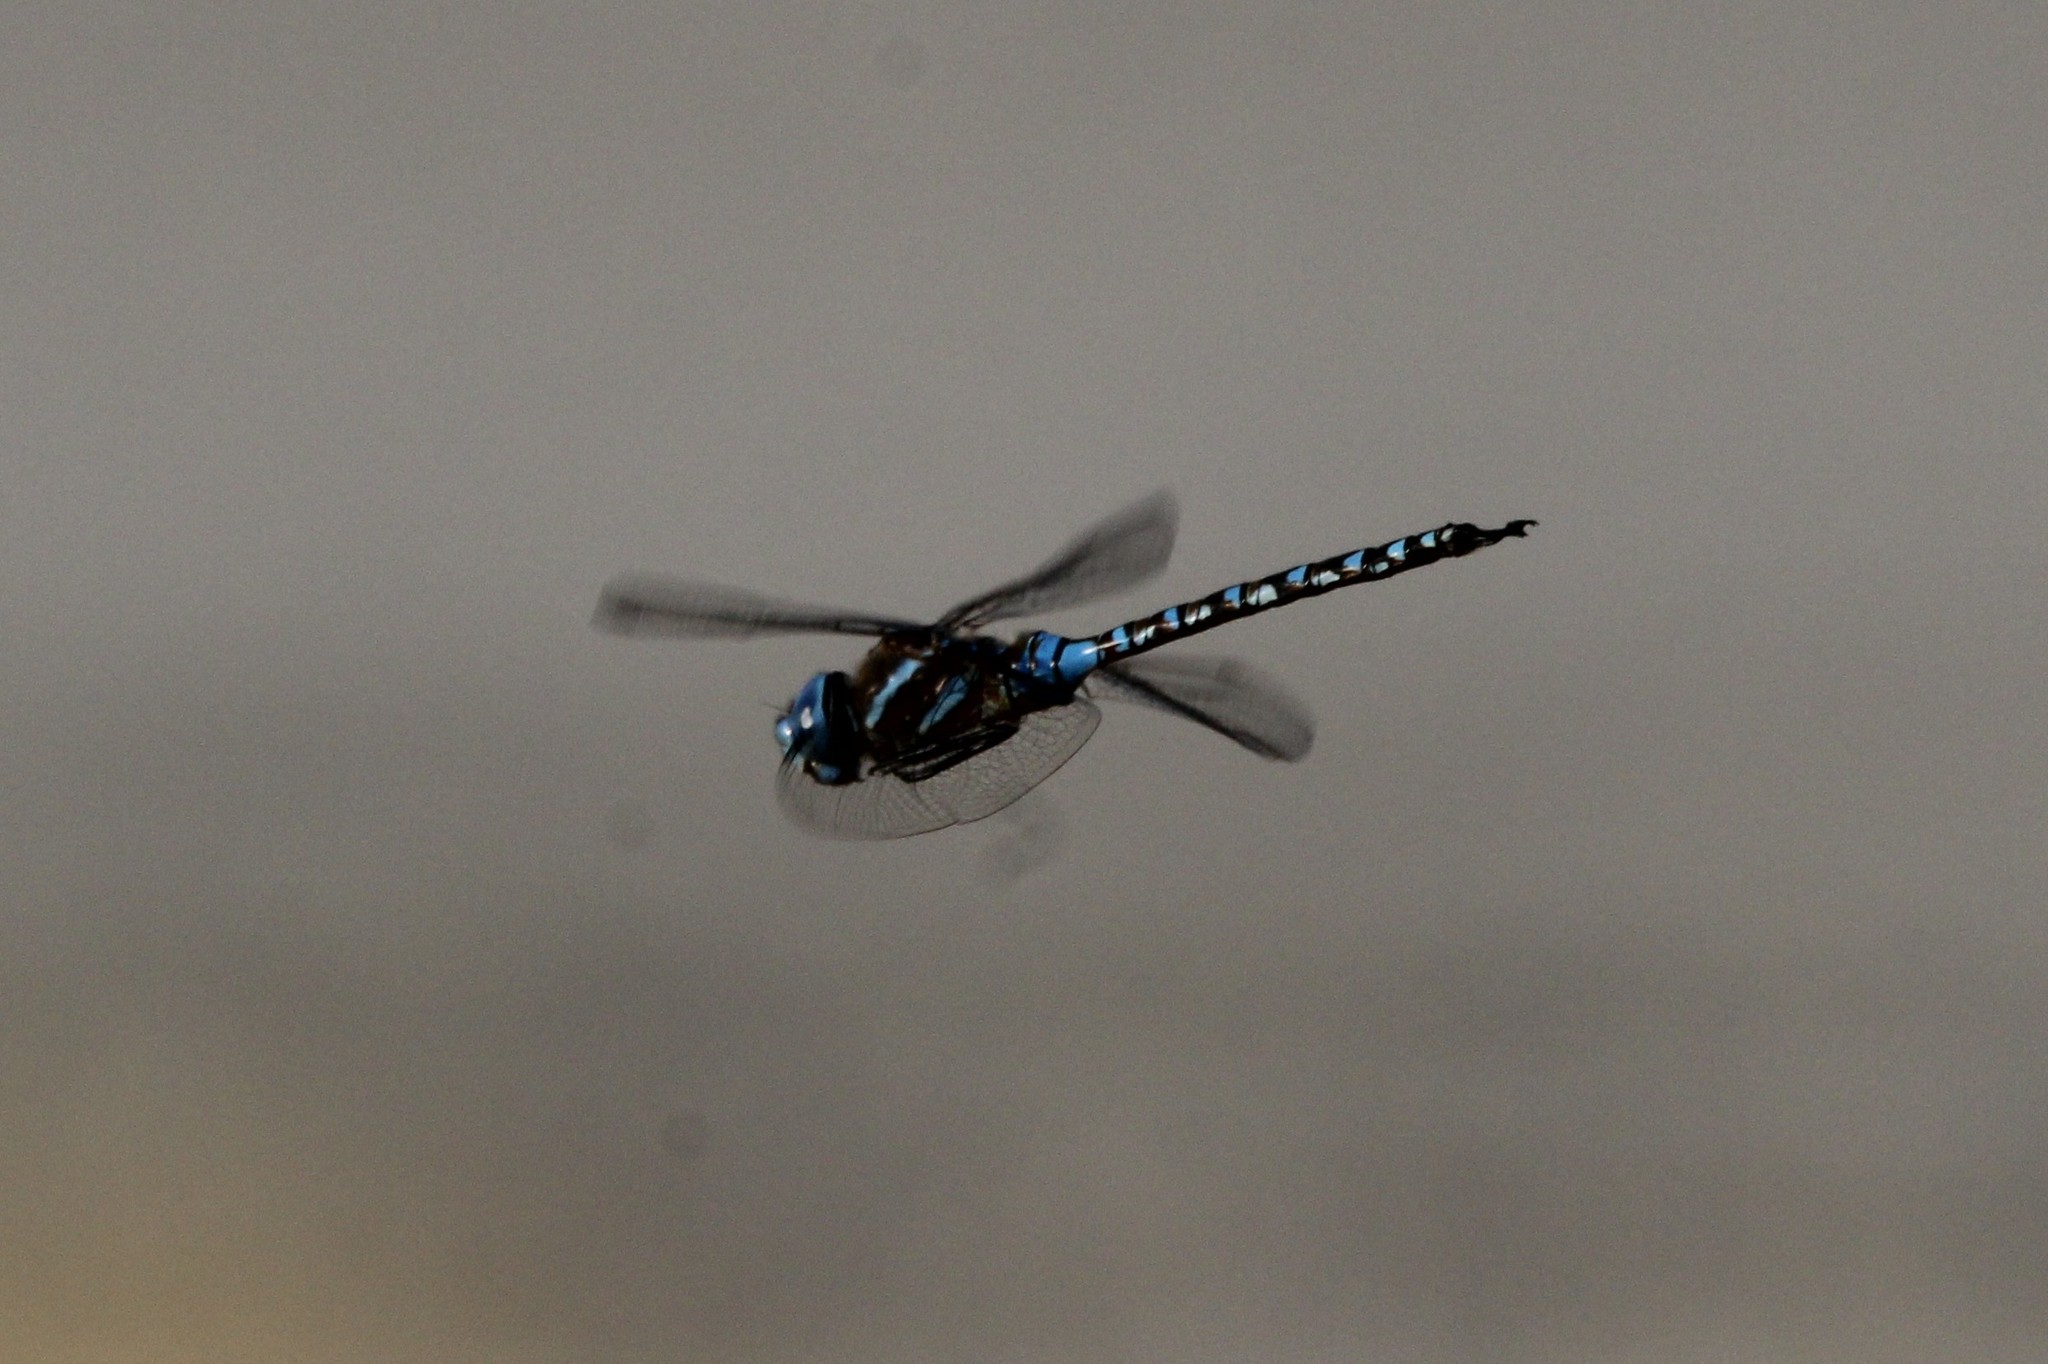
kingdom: Animalia
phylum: Arthropoda
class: Insecta
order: Odonata
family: Aeshnidae
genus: Rhionaeschna
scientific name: Rhionaeschna multicolor
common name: Blue-eyed darner
